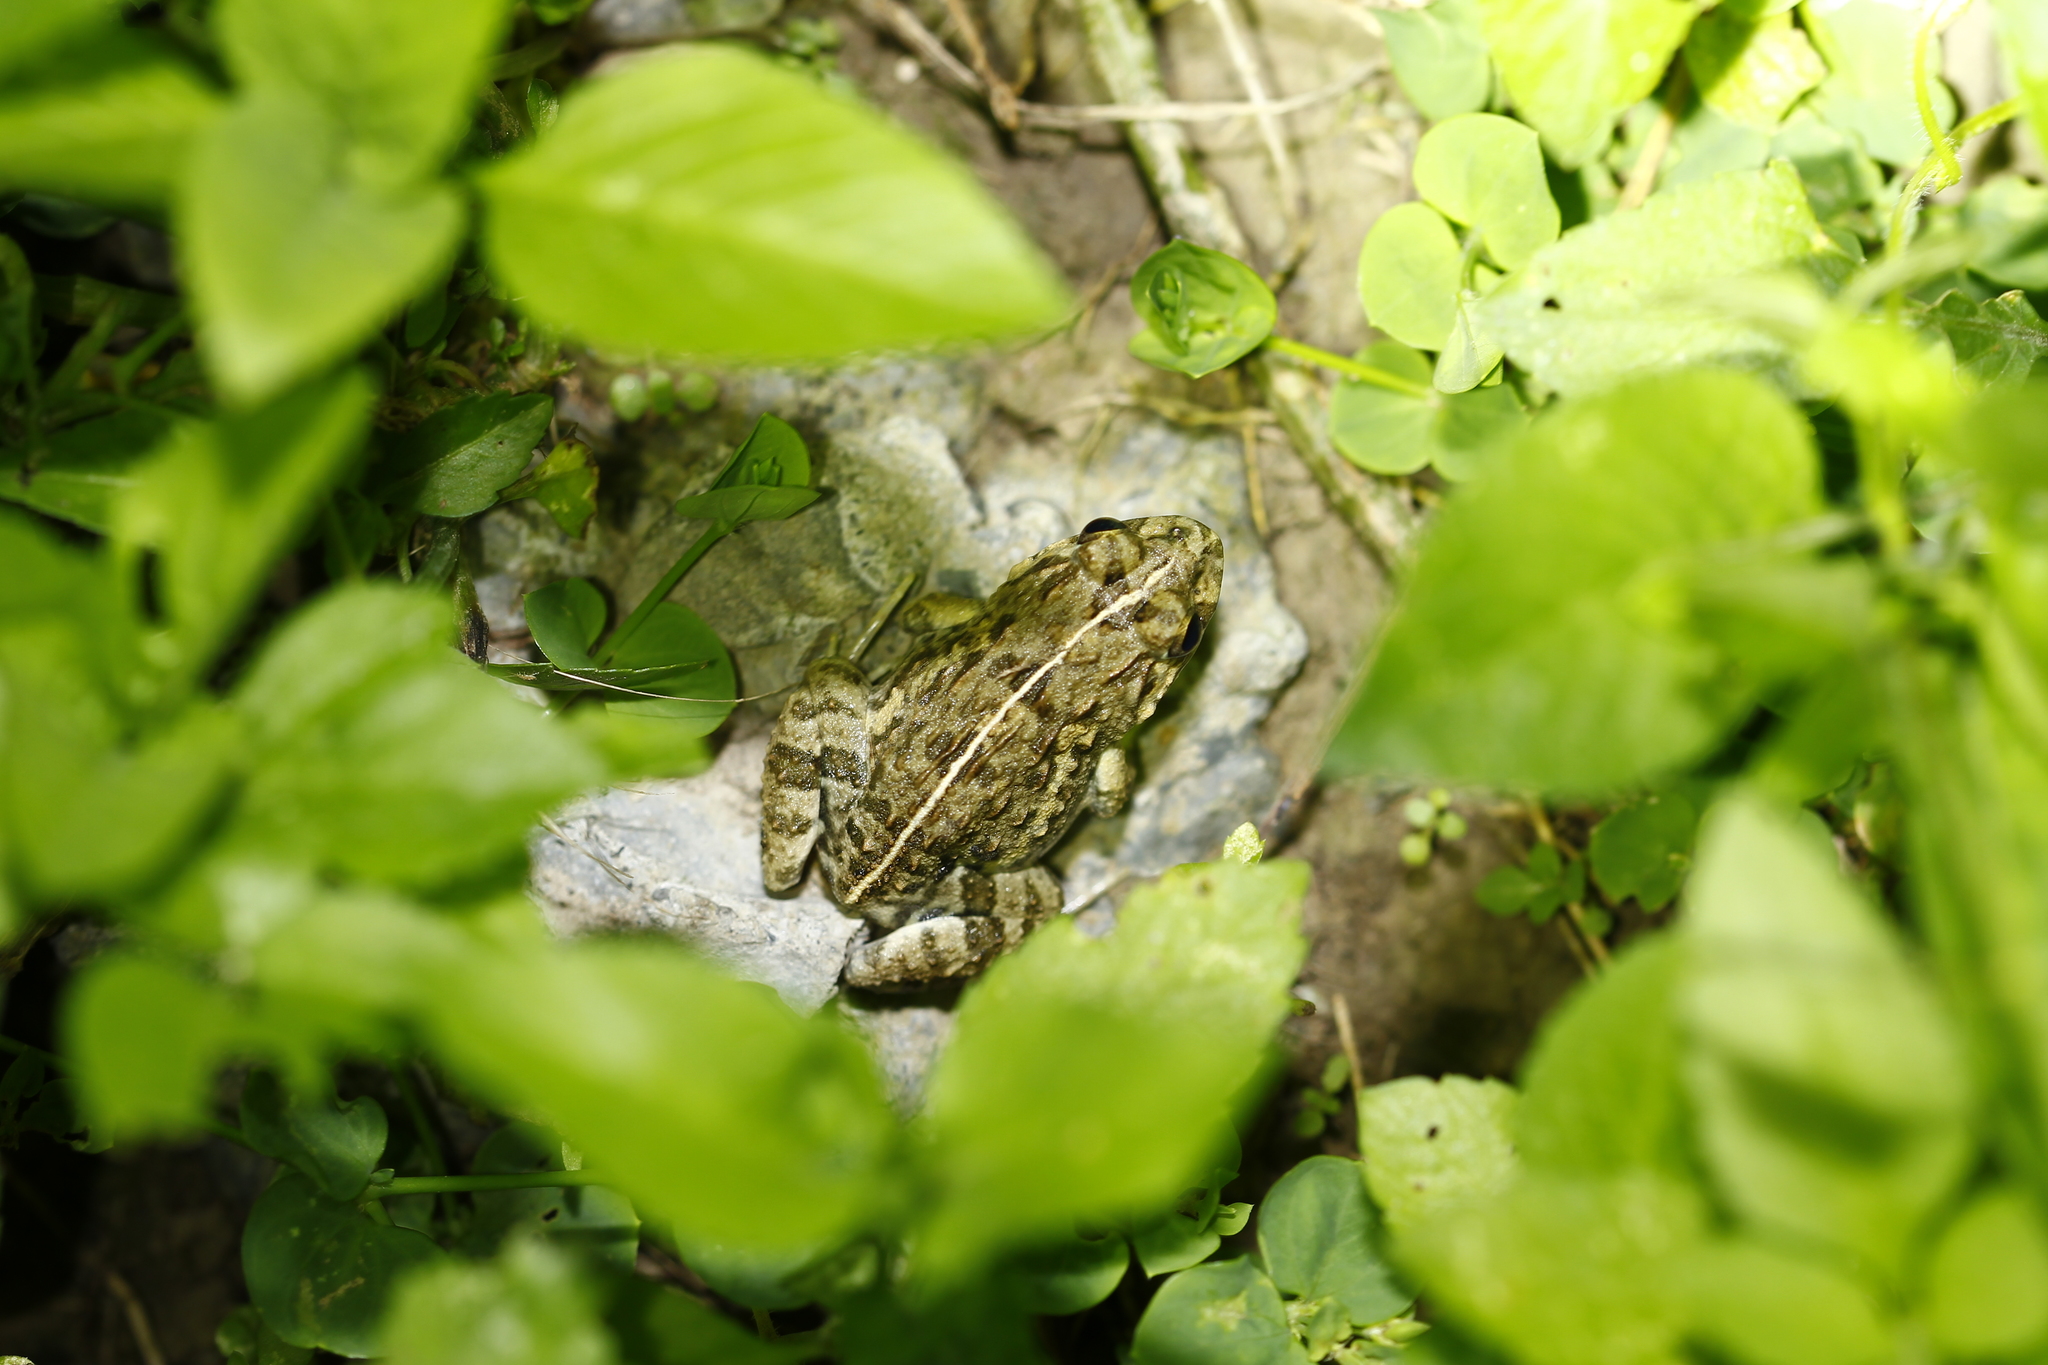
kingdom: Animalia
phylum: Chordata
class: Amphibia
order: Anura
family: Dicroglossidae
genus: Fejervarya
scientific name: Fejervarya limnocharis
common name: Asian grass frog/common pond frog/field frog/grass frog/indian rice frog
